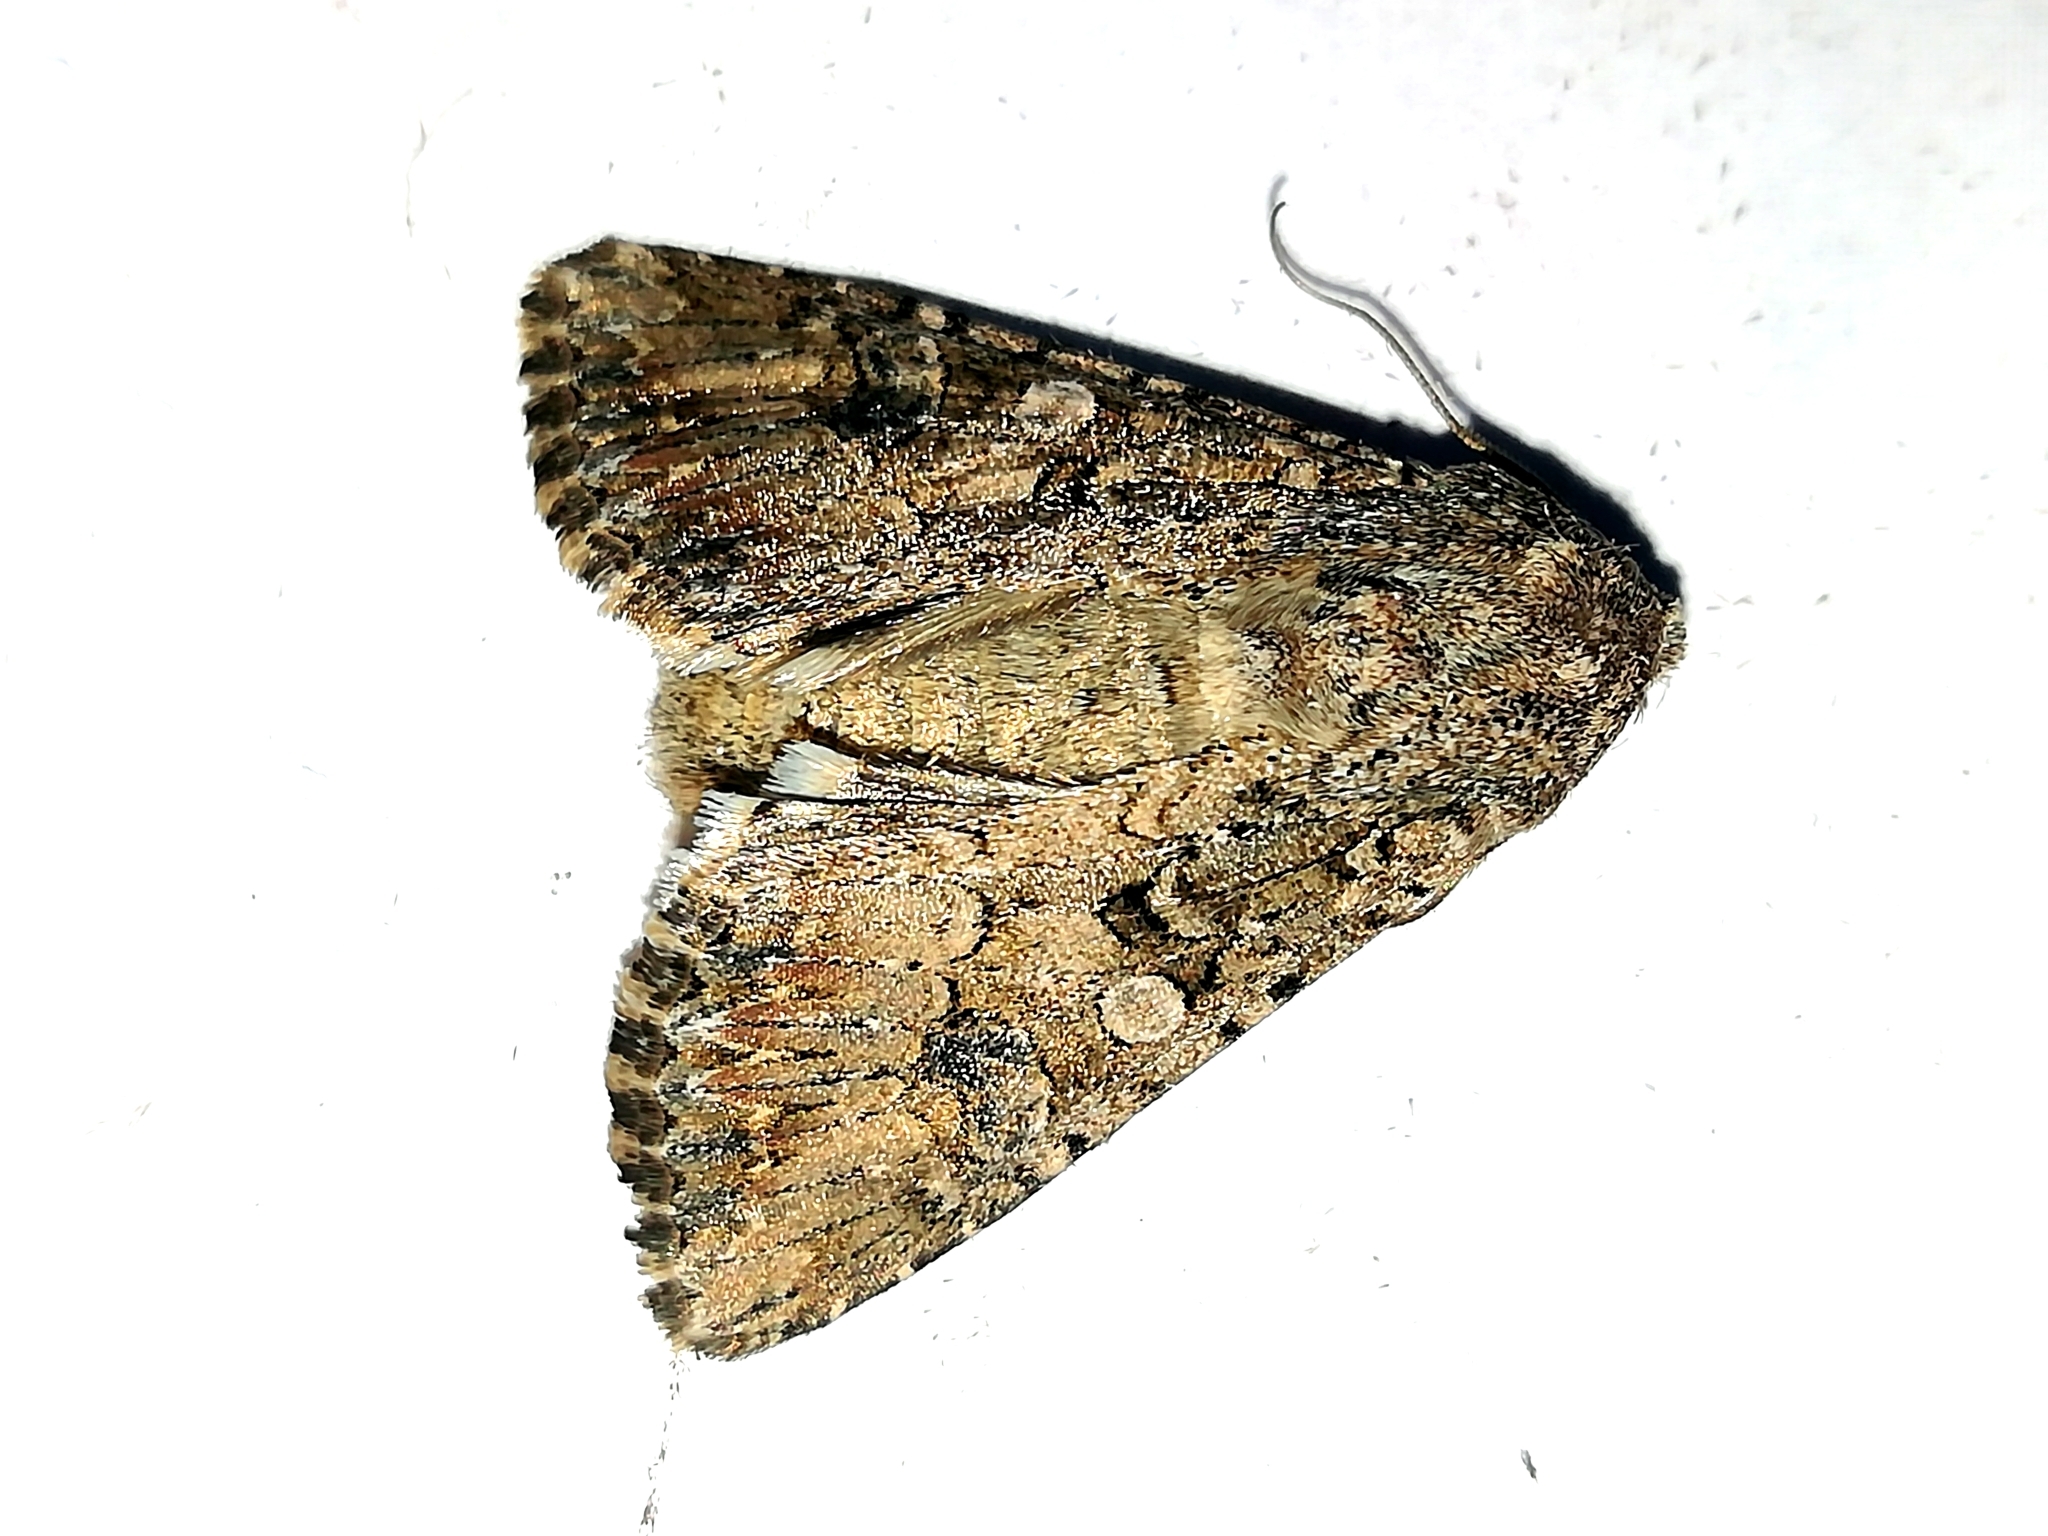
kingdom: Animalia
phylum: Arthropoda
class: Insecta
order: Lepidoptera
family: Noctuidae
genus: Anarta
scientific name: Anarta trifolii
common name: Clover cutworm moth
